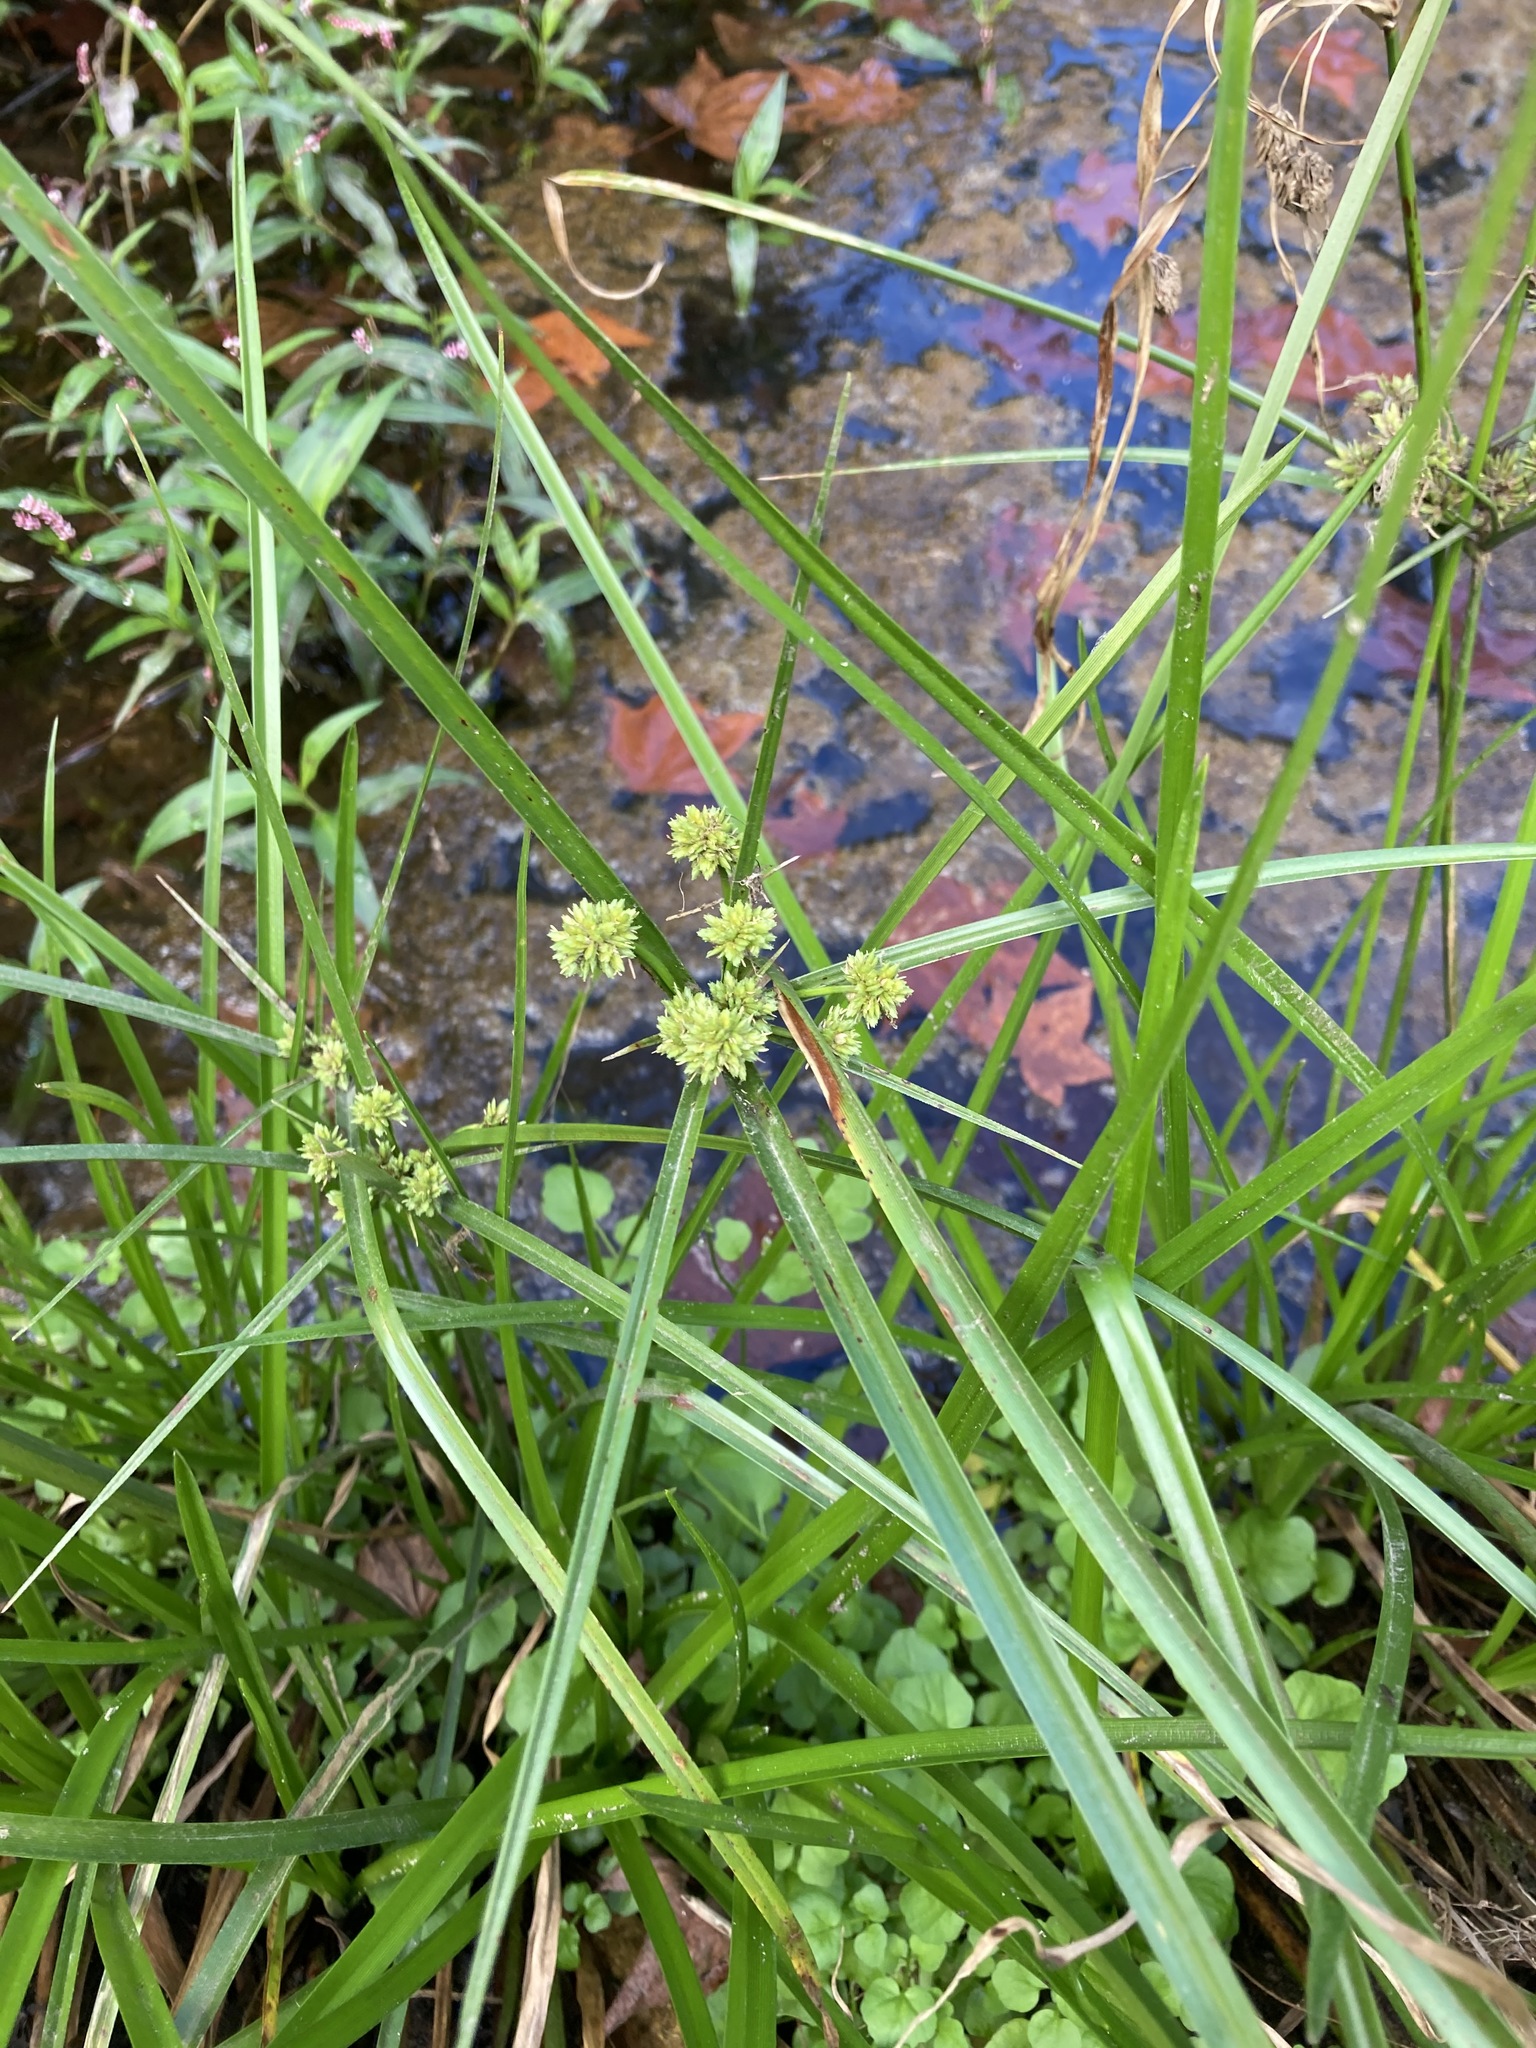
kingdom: Plantae
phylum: Tracheophyta
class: Liliopsida
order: Poales
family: Cyperaceae
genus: Cyperus
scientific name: Cyperus eragrostis
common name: Tall flatsedge
